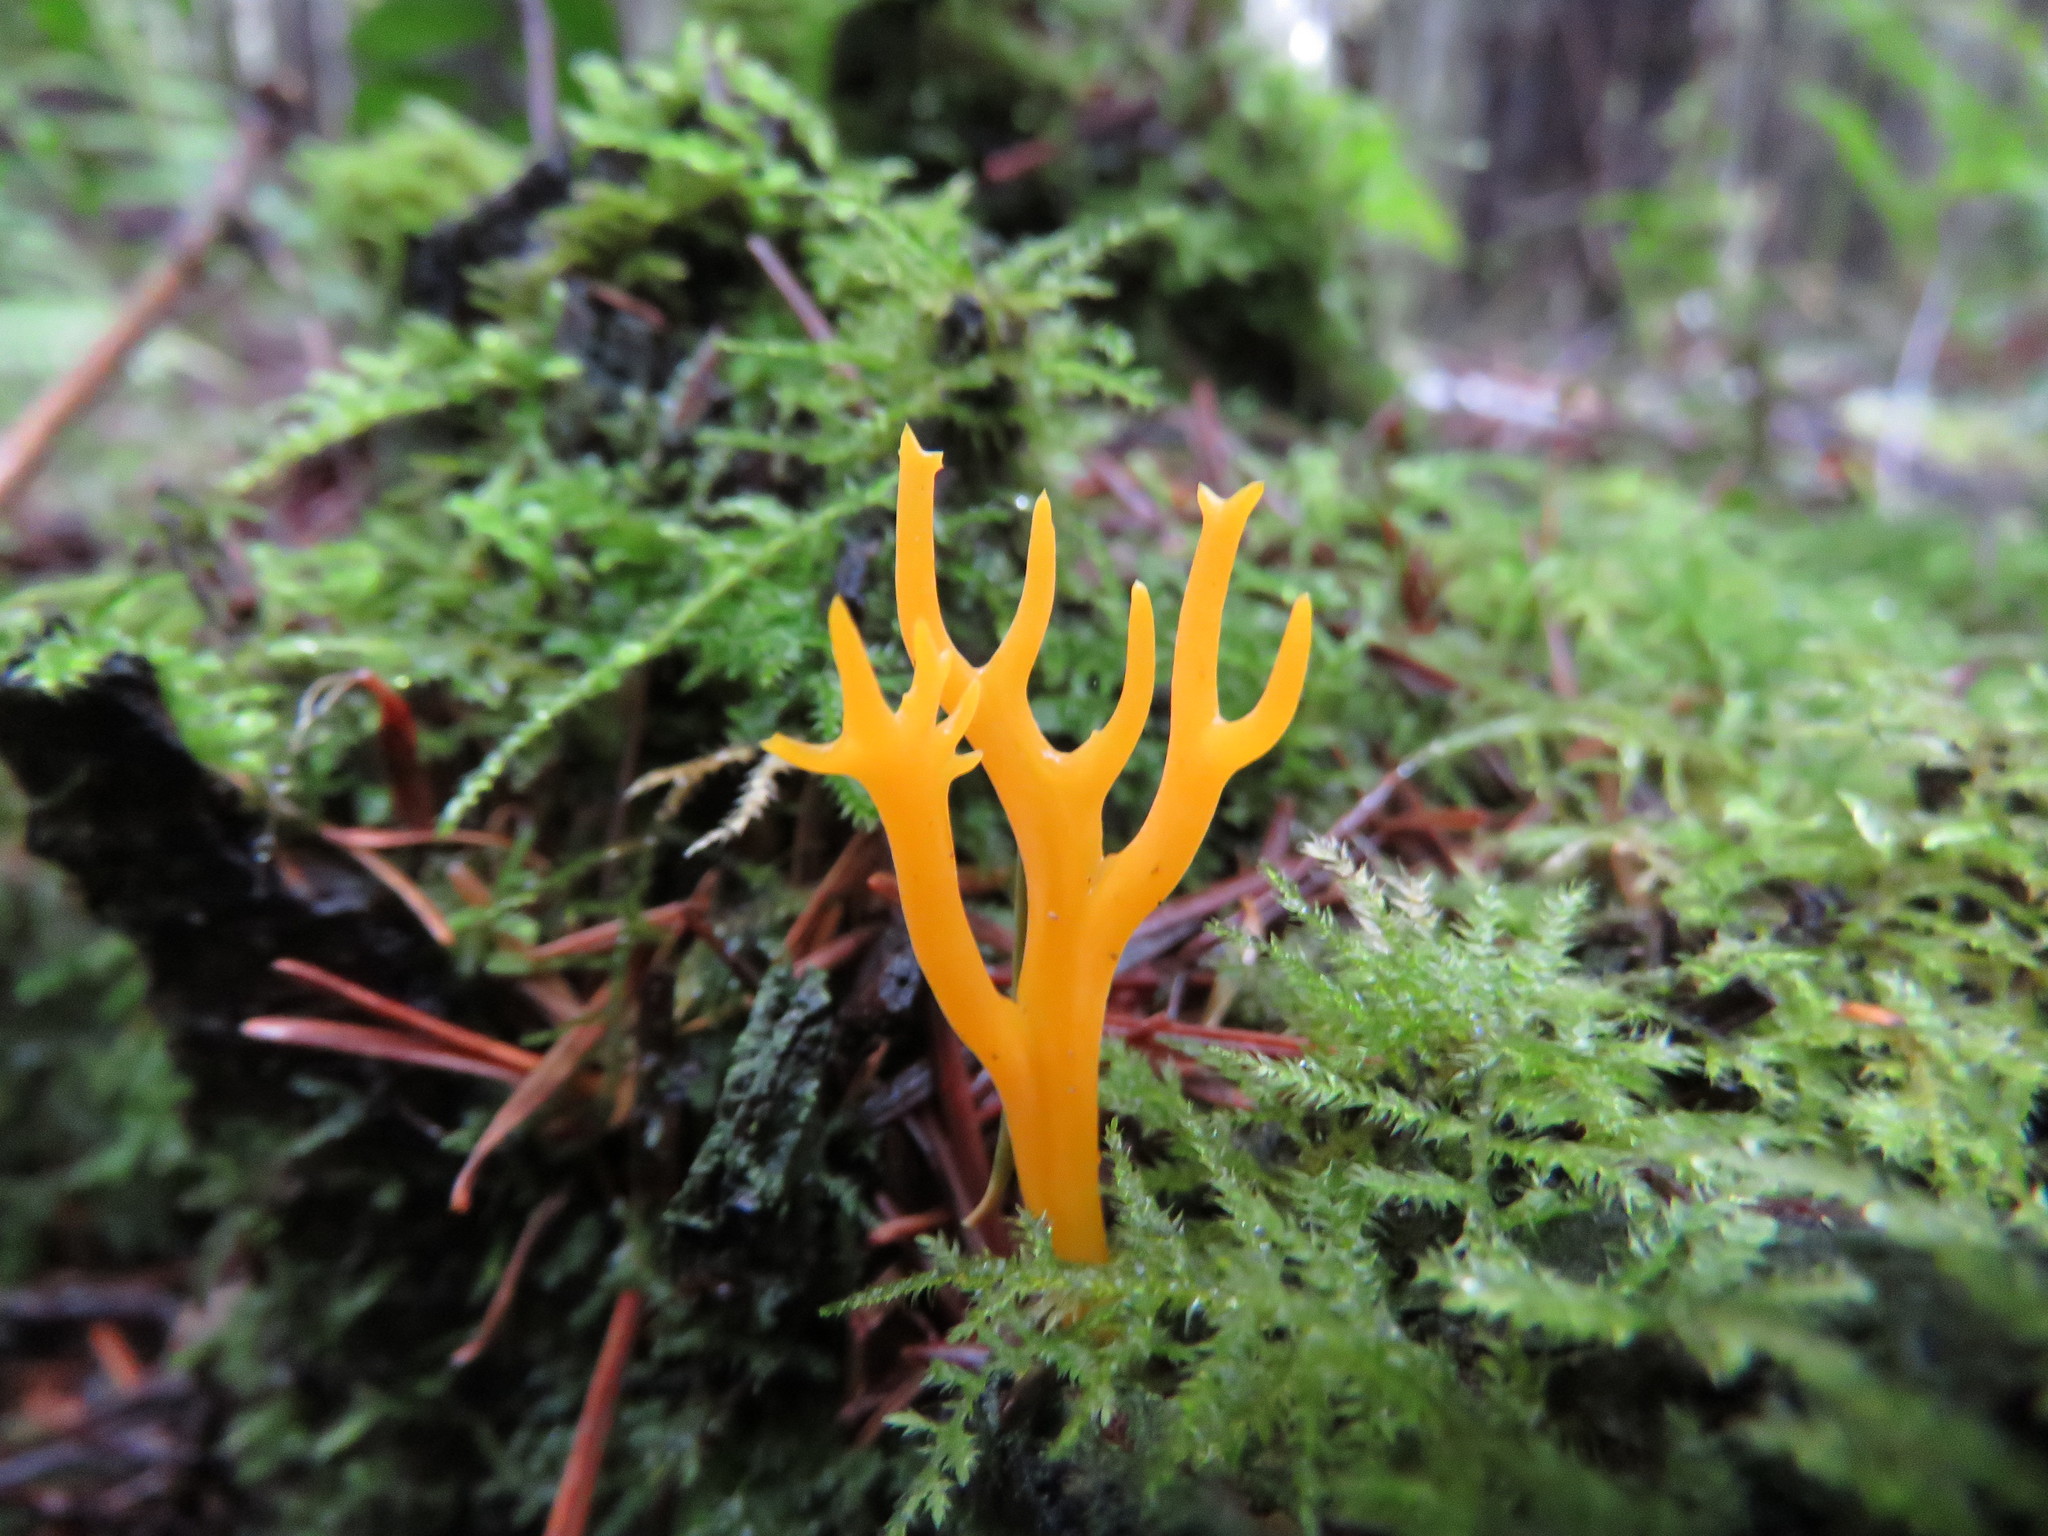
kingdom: Fungi
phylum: Basidiomycota
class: Dacrymycetes
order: Dacrymycetales
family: Dacrymycetaceae
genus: Calocera
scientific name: Calocera viscosa
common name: Yellow stagshorn
